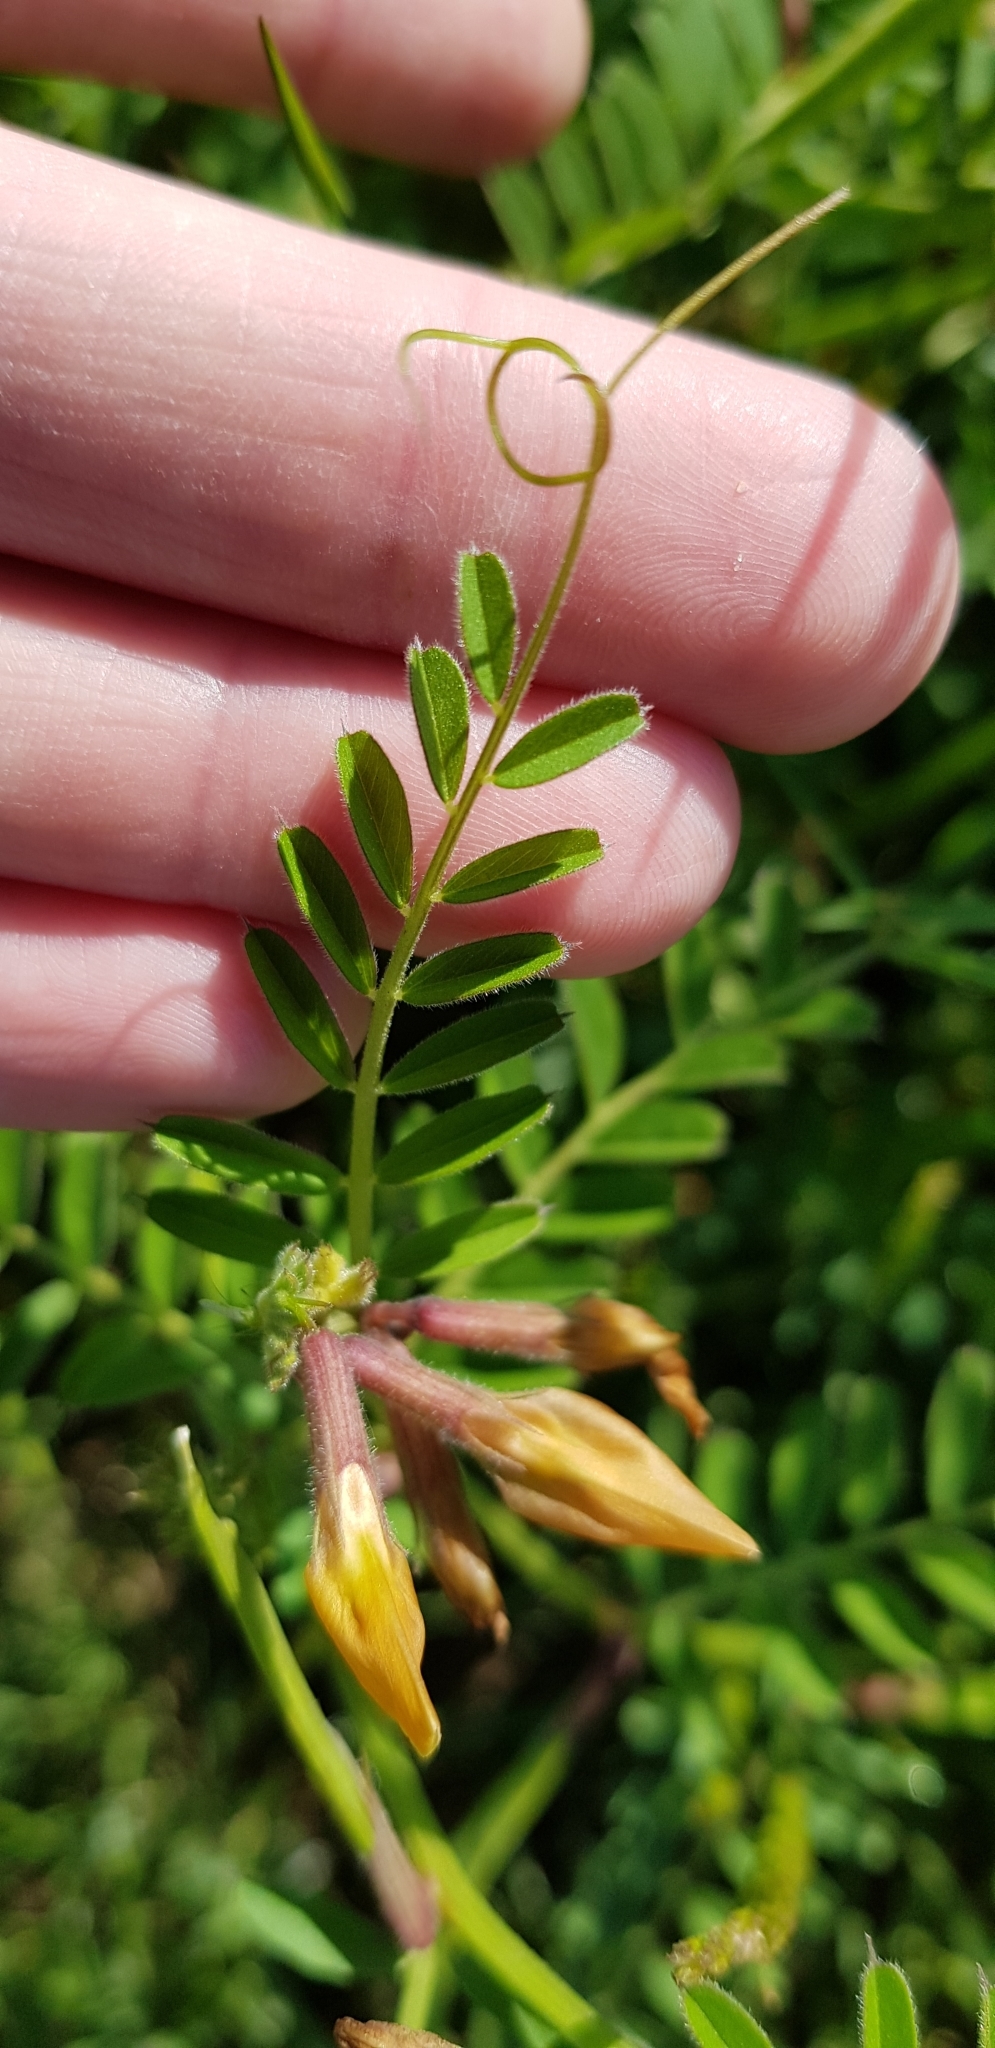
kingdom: Plantae
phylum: Tracheophyta
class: Magnoliopsida
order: Fabales
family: Fabaceae
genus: Vicia
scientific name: Vicia grandiflora
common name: Large yellow vetch
